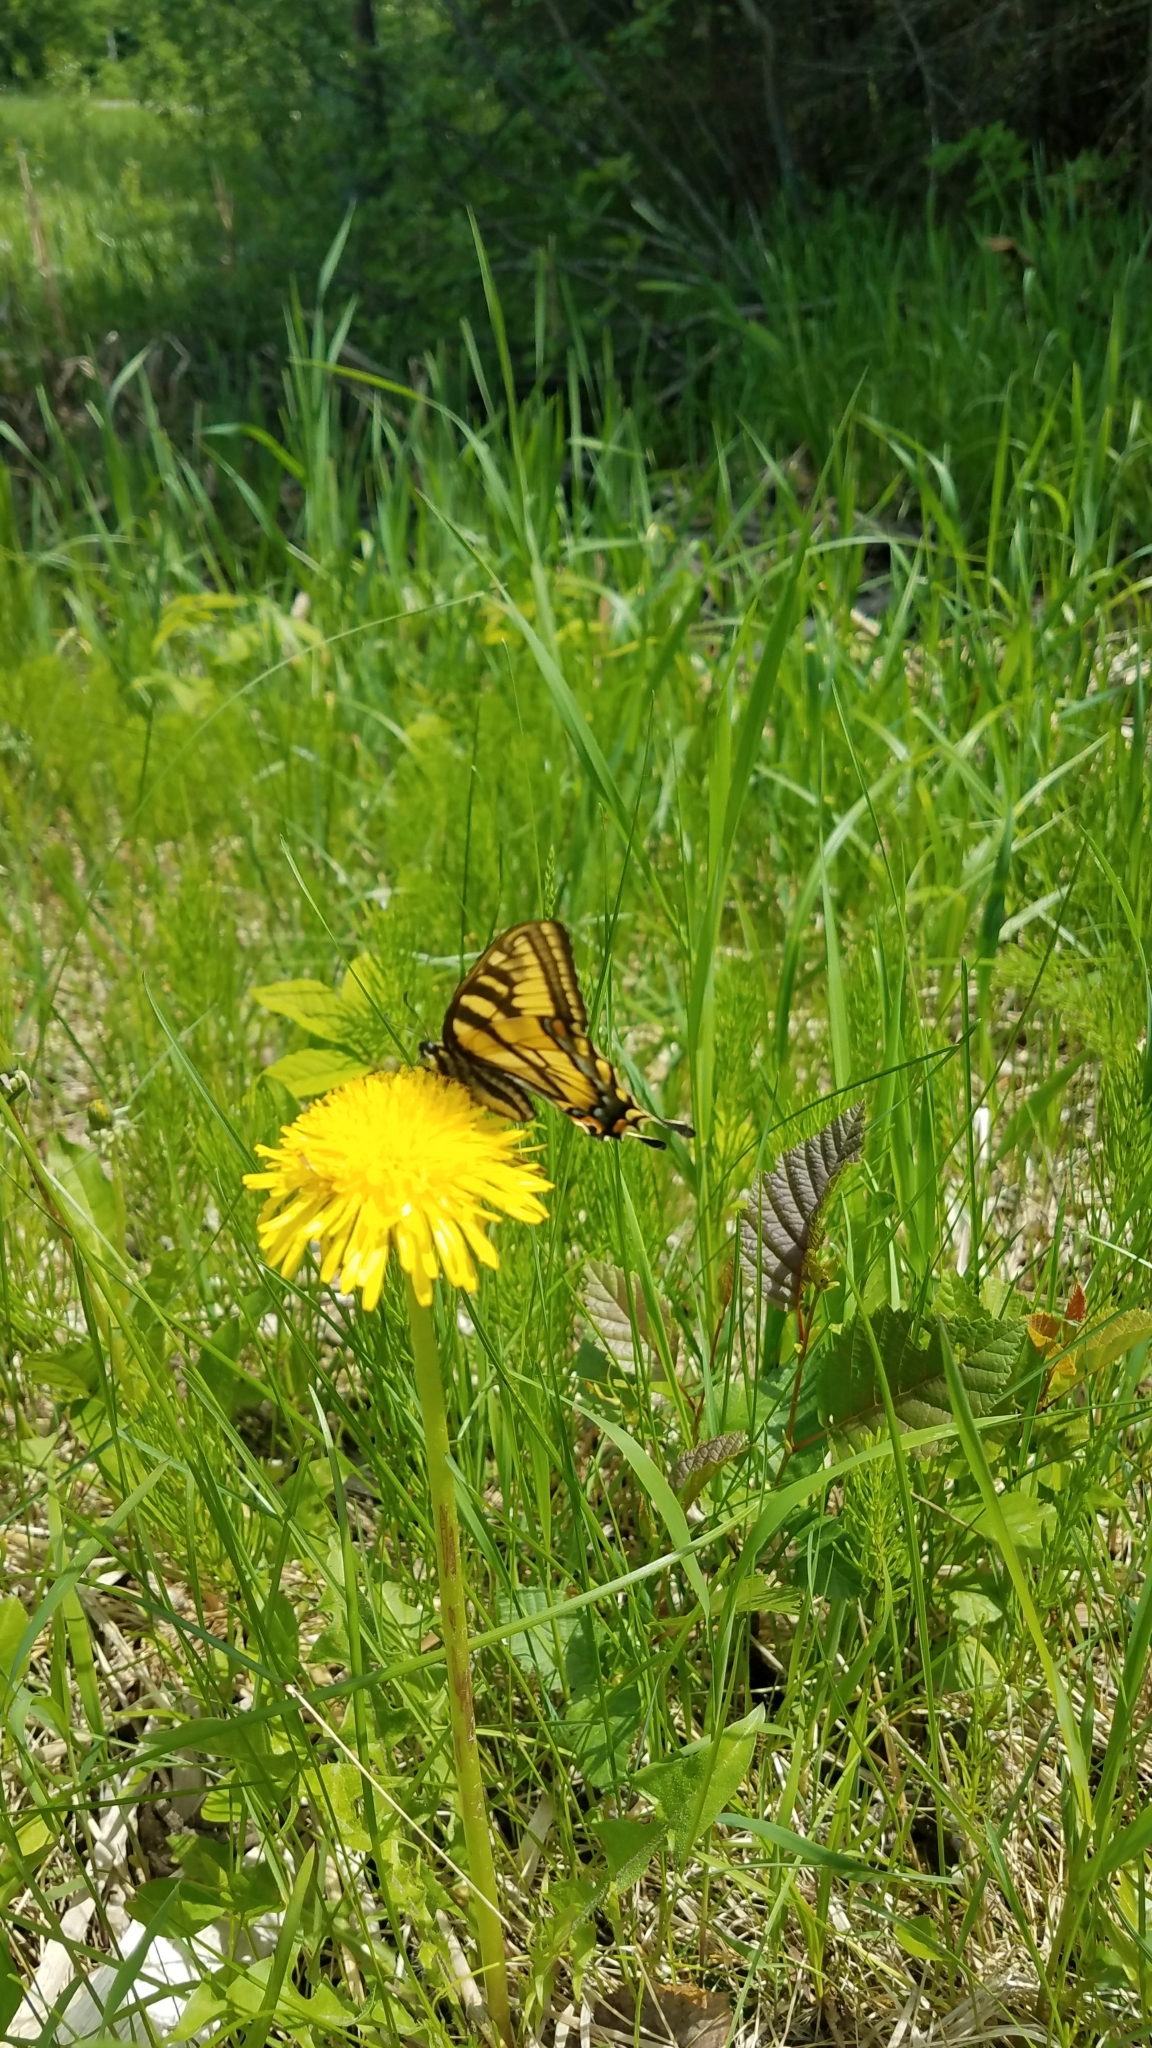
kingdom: Animalia
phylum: Arthropoda
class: Insecta
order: Lepidoptera
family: Papilionidae
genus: Papilio
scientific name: Papilio canadensis
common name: Canadian tiger swallowtail
